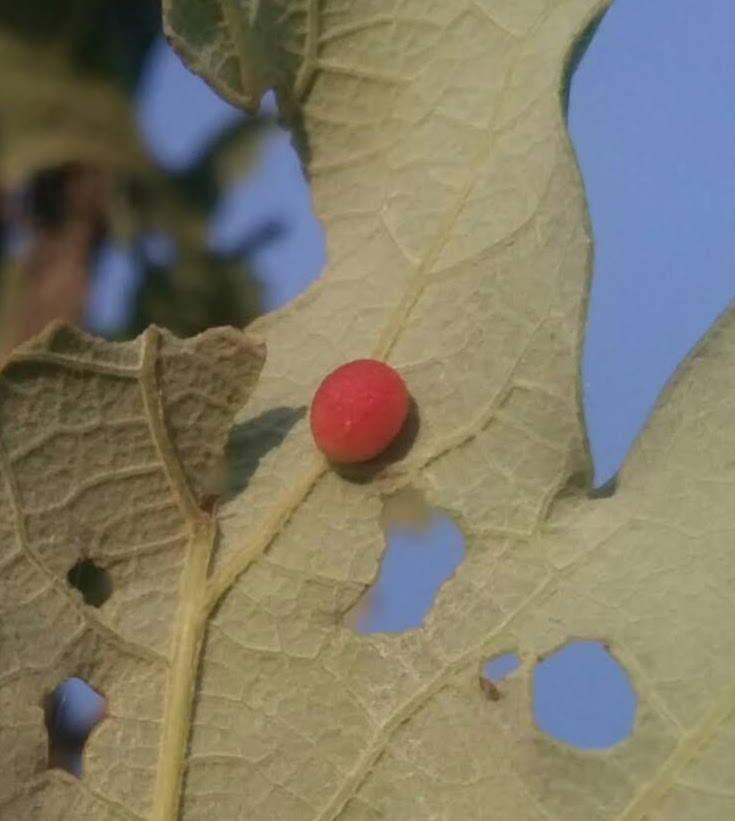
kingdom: Animalia
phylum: Arthropoda
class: Insecta
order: Hymenoptera
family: Cynipidae
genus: Acraspis
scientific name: Acraspis quercushirta
